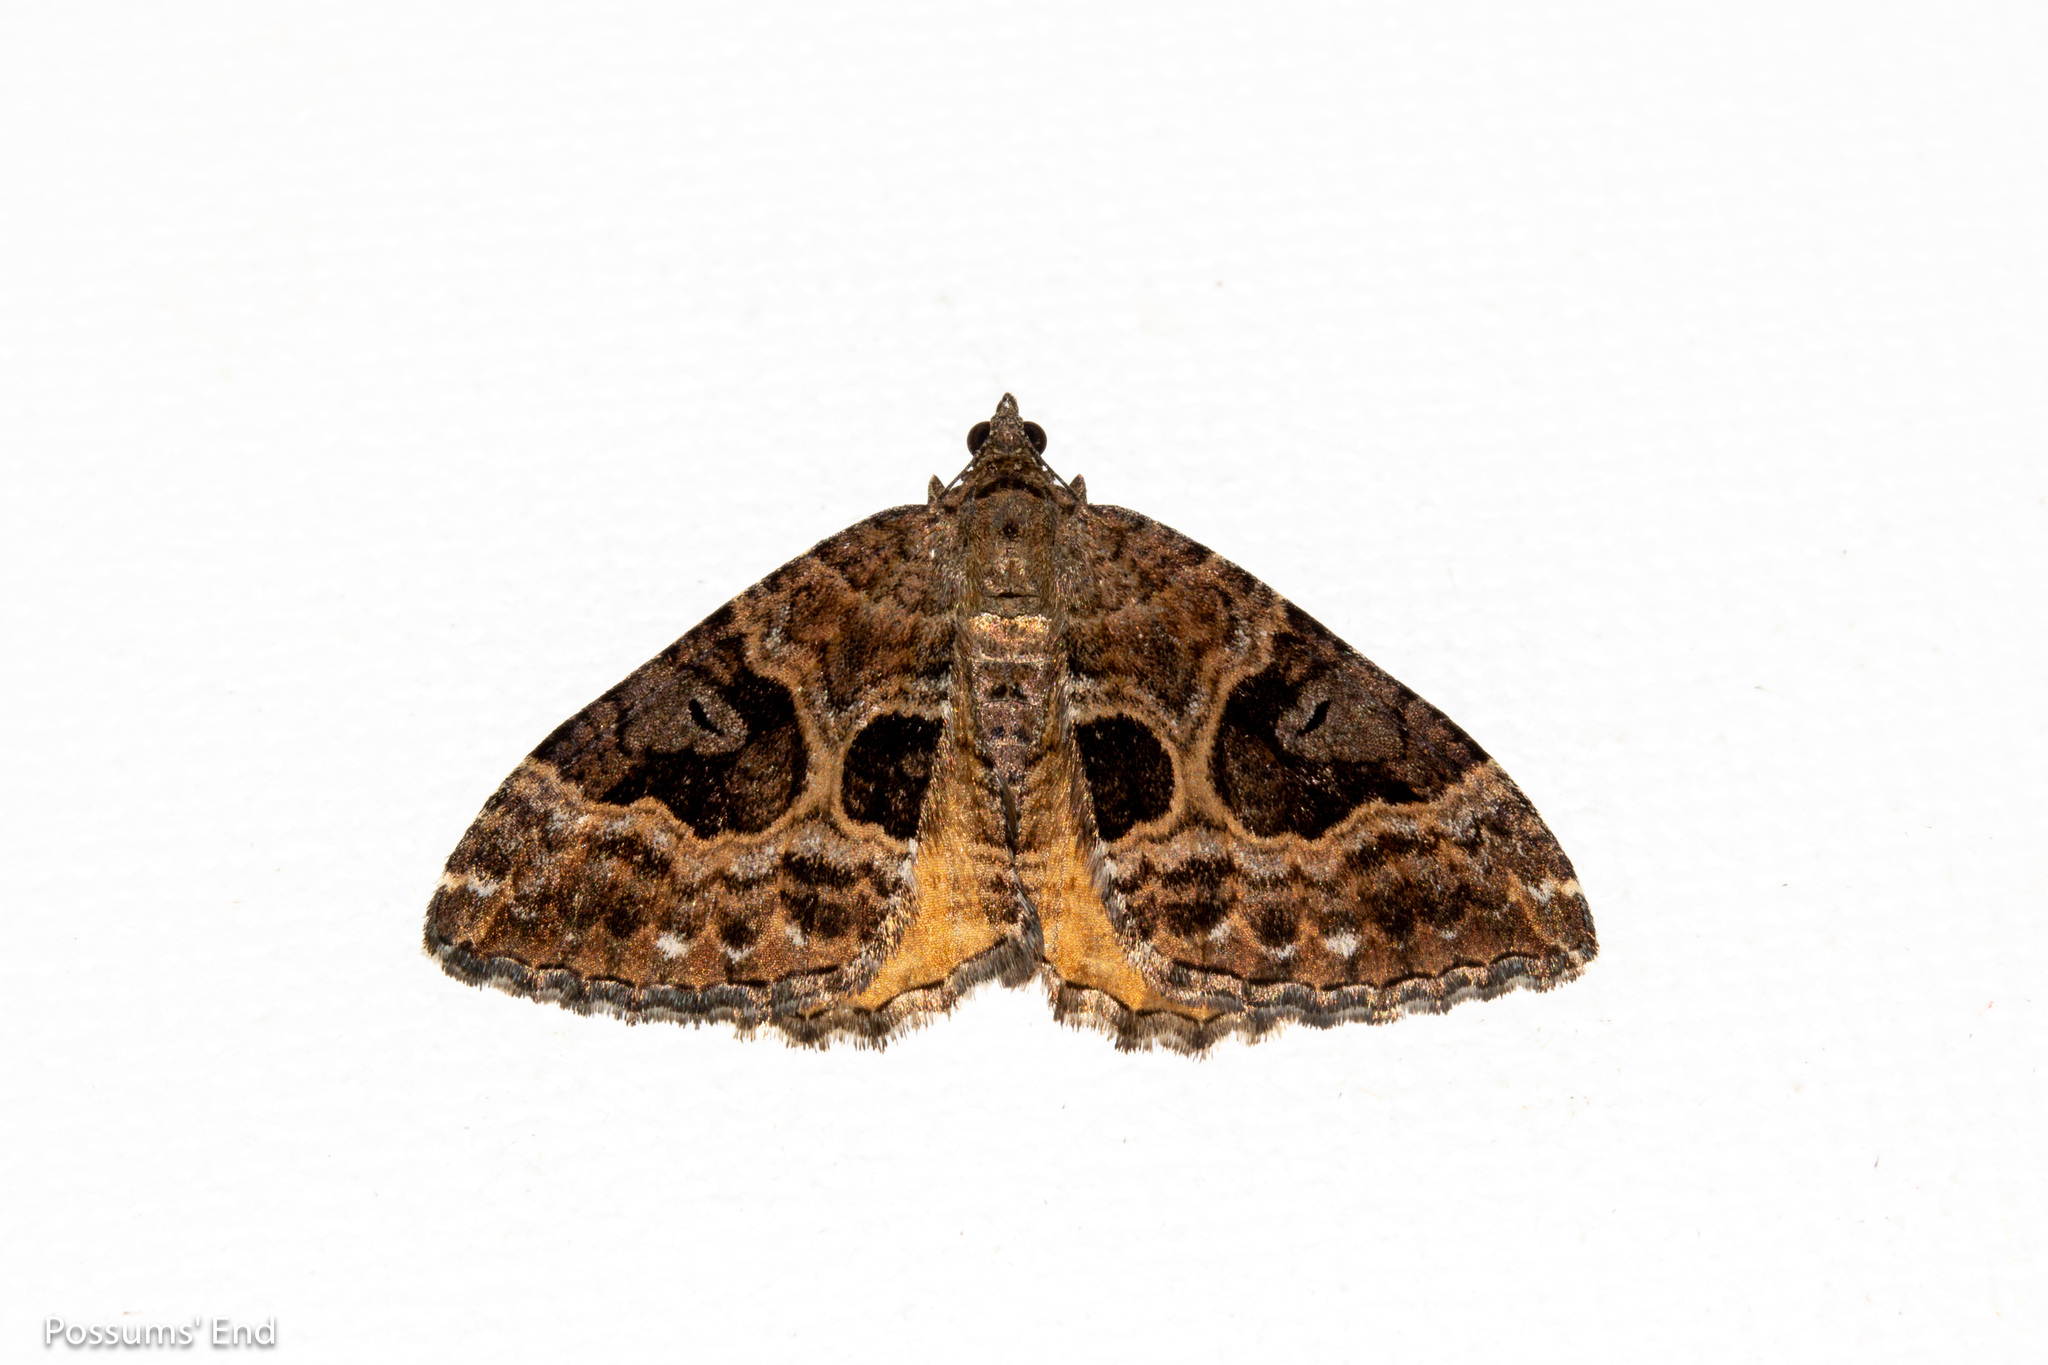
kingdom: Animalia
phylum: Arthropoda
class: Insecta
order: Lepidoptera
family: Geometridae
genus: Hydriomena
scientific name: Hydriomena deltoidata
